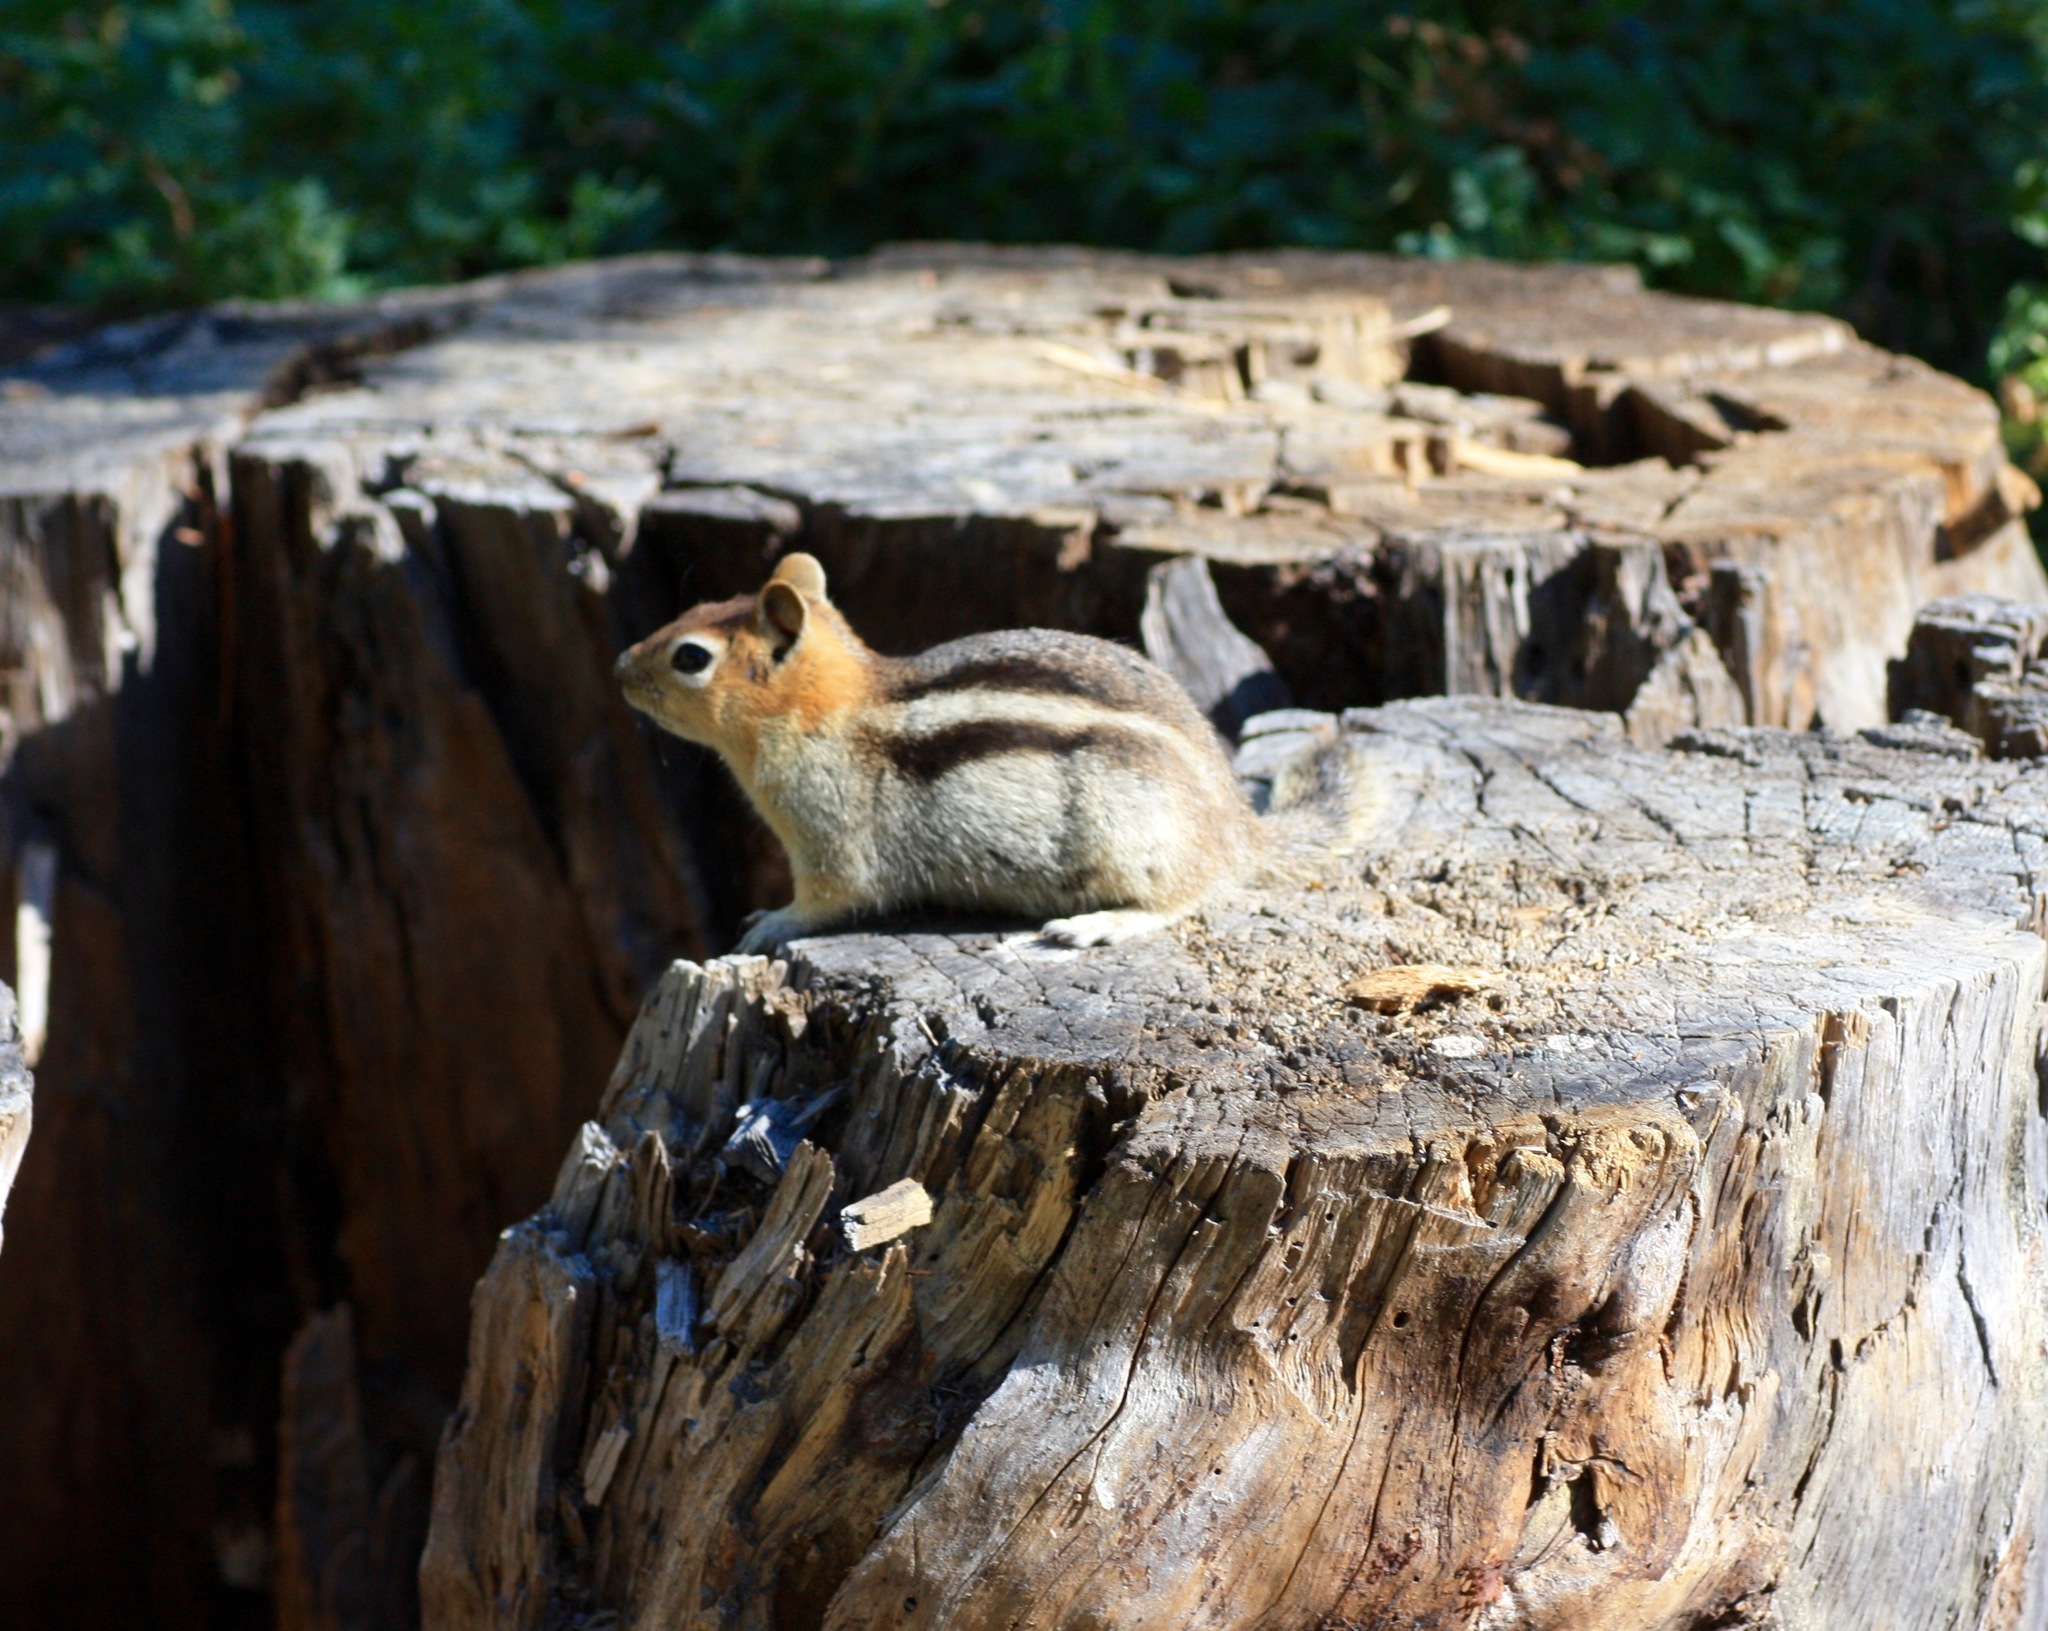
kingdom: Animalia
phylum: Chordata
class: Mammalia
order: Rodentia
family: Sciuridae
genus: Callospermophilus
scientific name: Callospermophilus lateralis
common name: Golden-mantled ground squirrel
